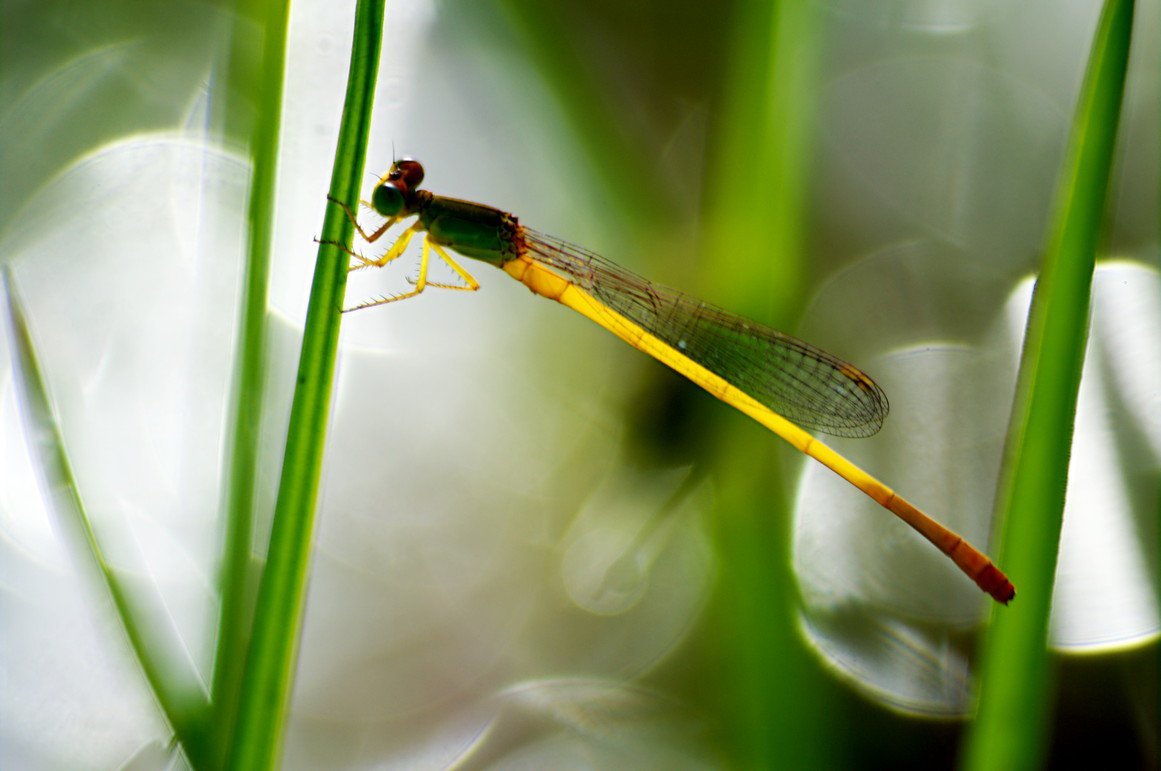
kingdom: Animalia
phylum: Arthropoda
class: Insecta
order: Odonata
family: Coenagrionidae
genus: Ceriagrion
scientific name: Ceriagrion coromandelianum
